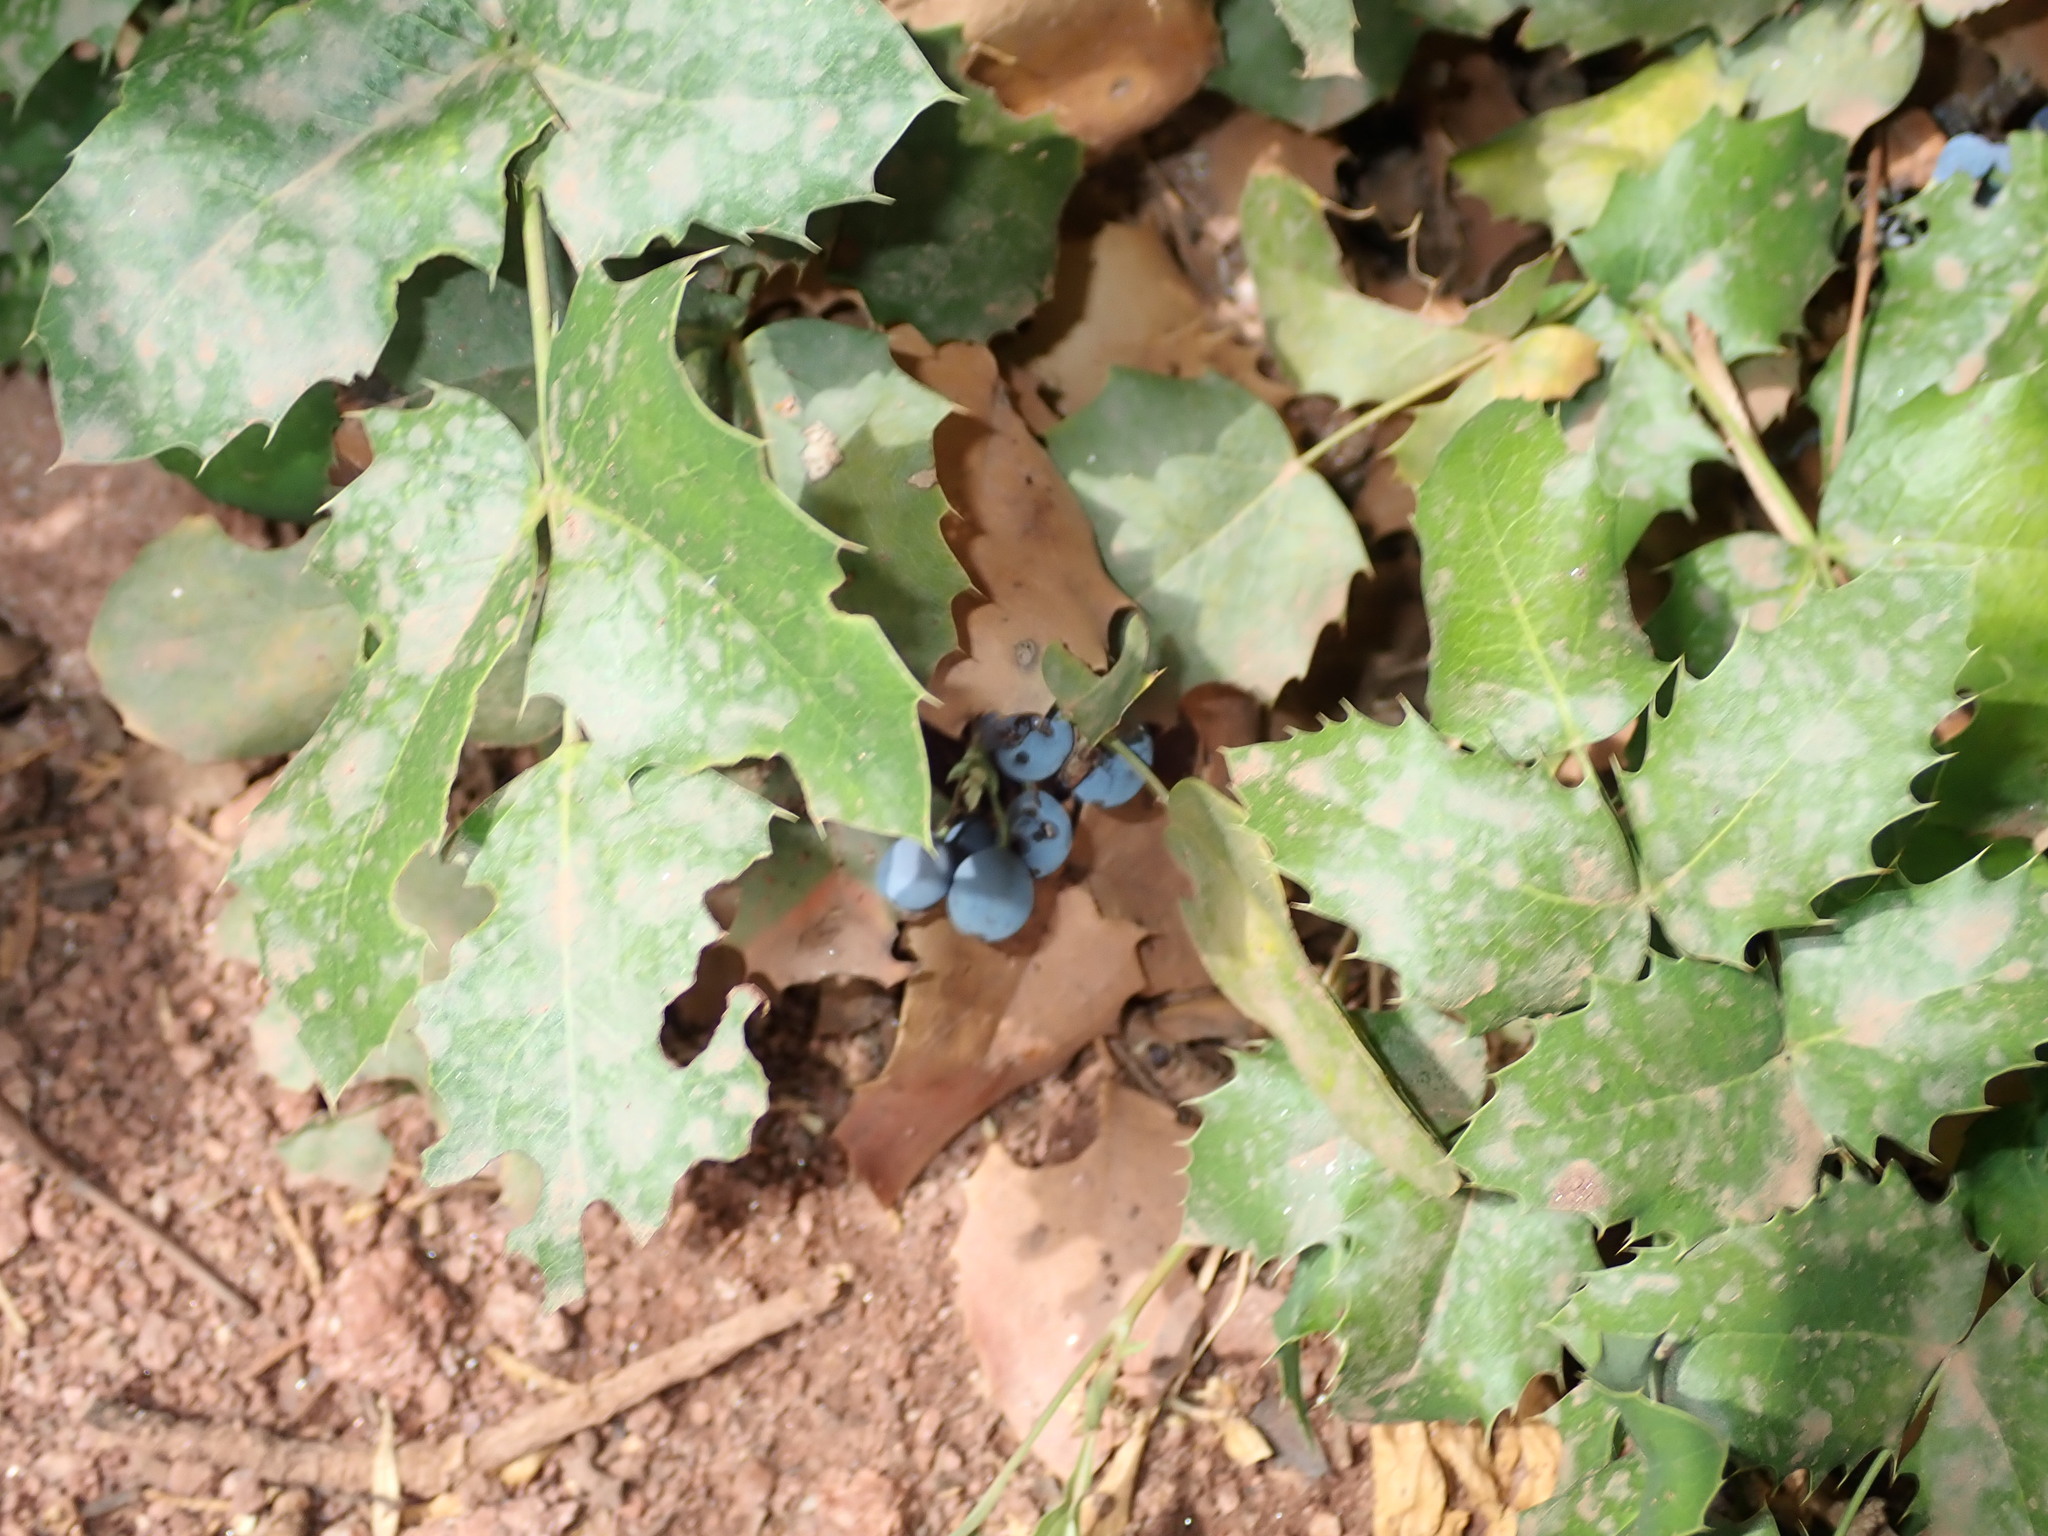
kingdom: Plantae
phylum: Tracheophyta
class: Magnoliopsida
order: Ranunculales
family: Berberidaceae
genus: Mahonia
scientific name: Mahonia repens
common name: Creeping oregon-grape
